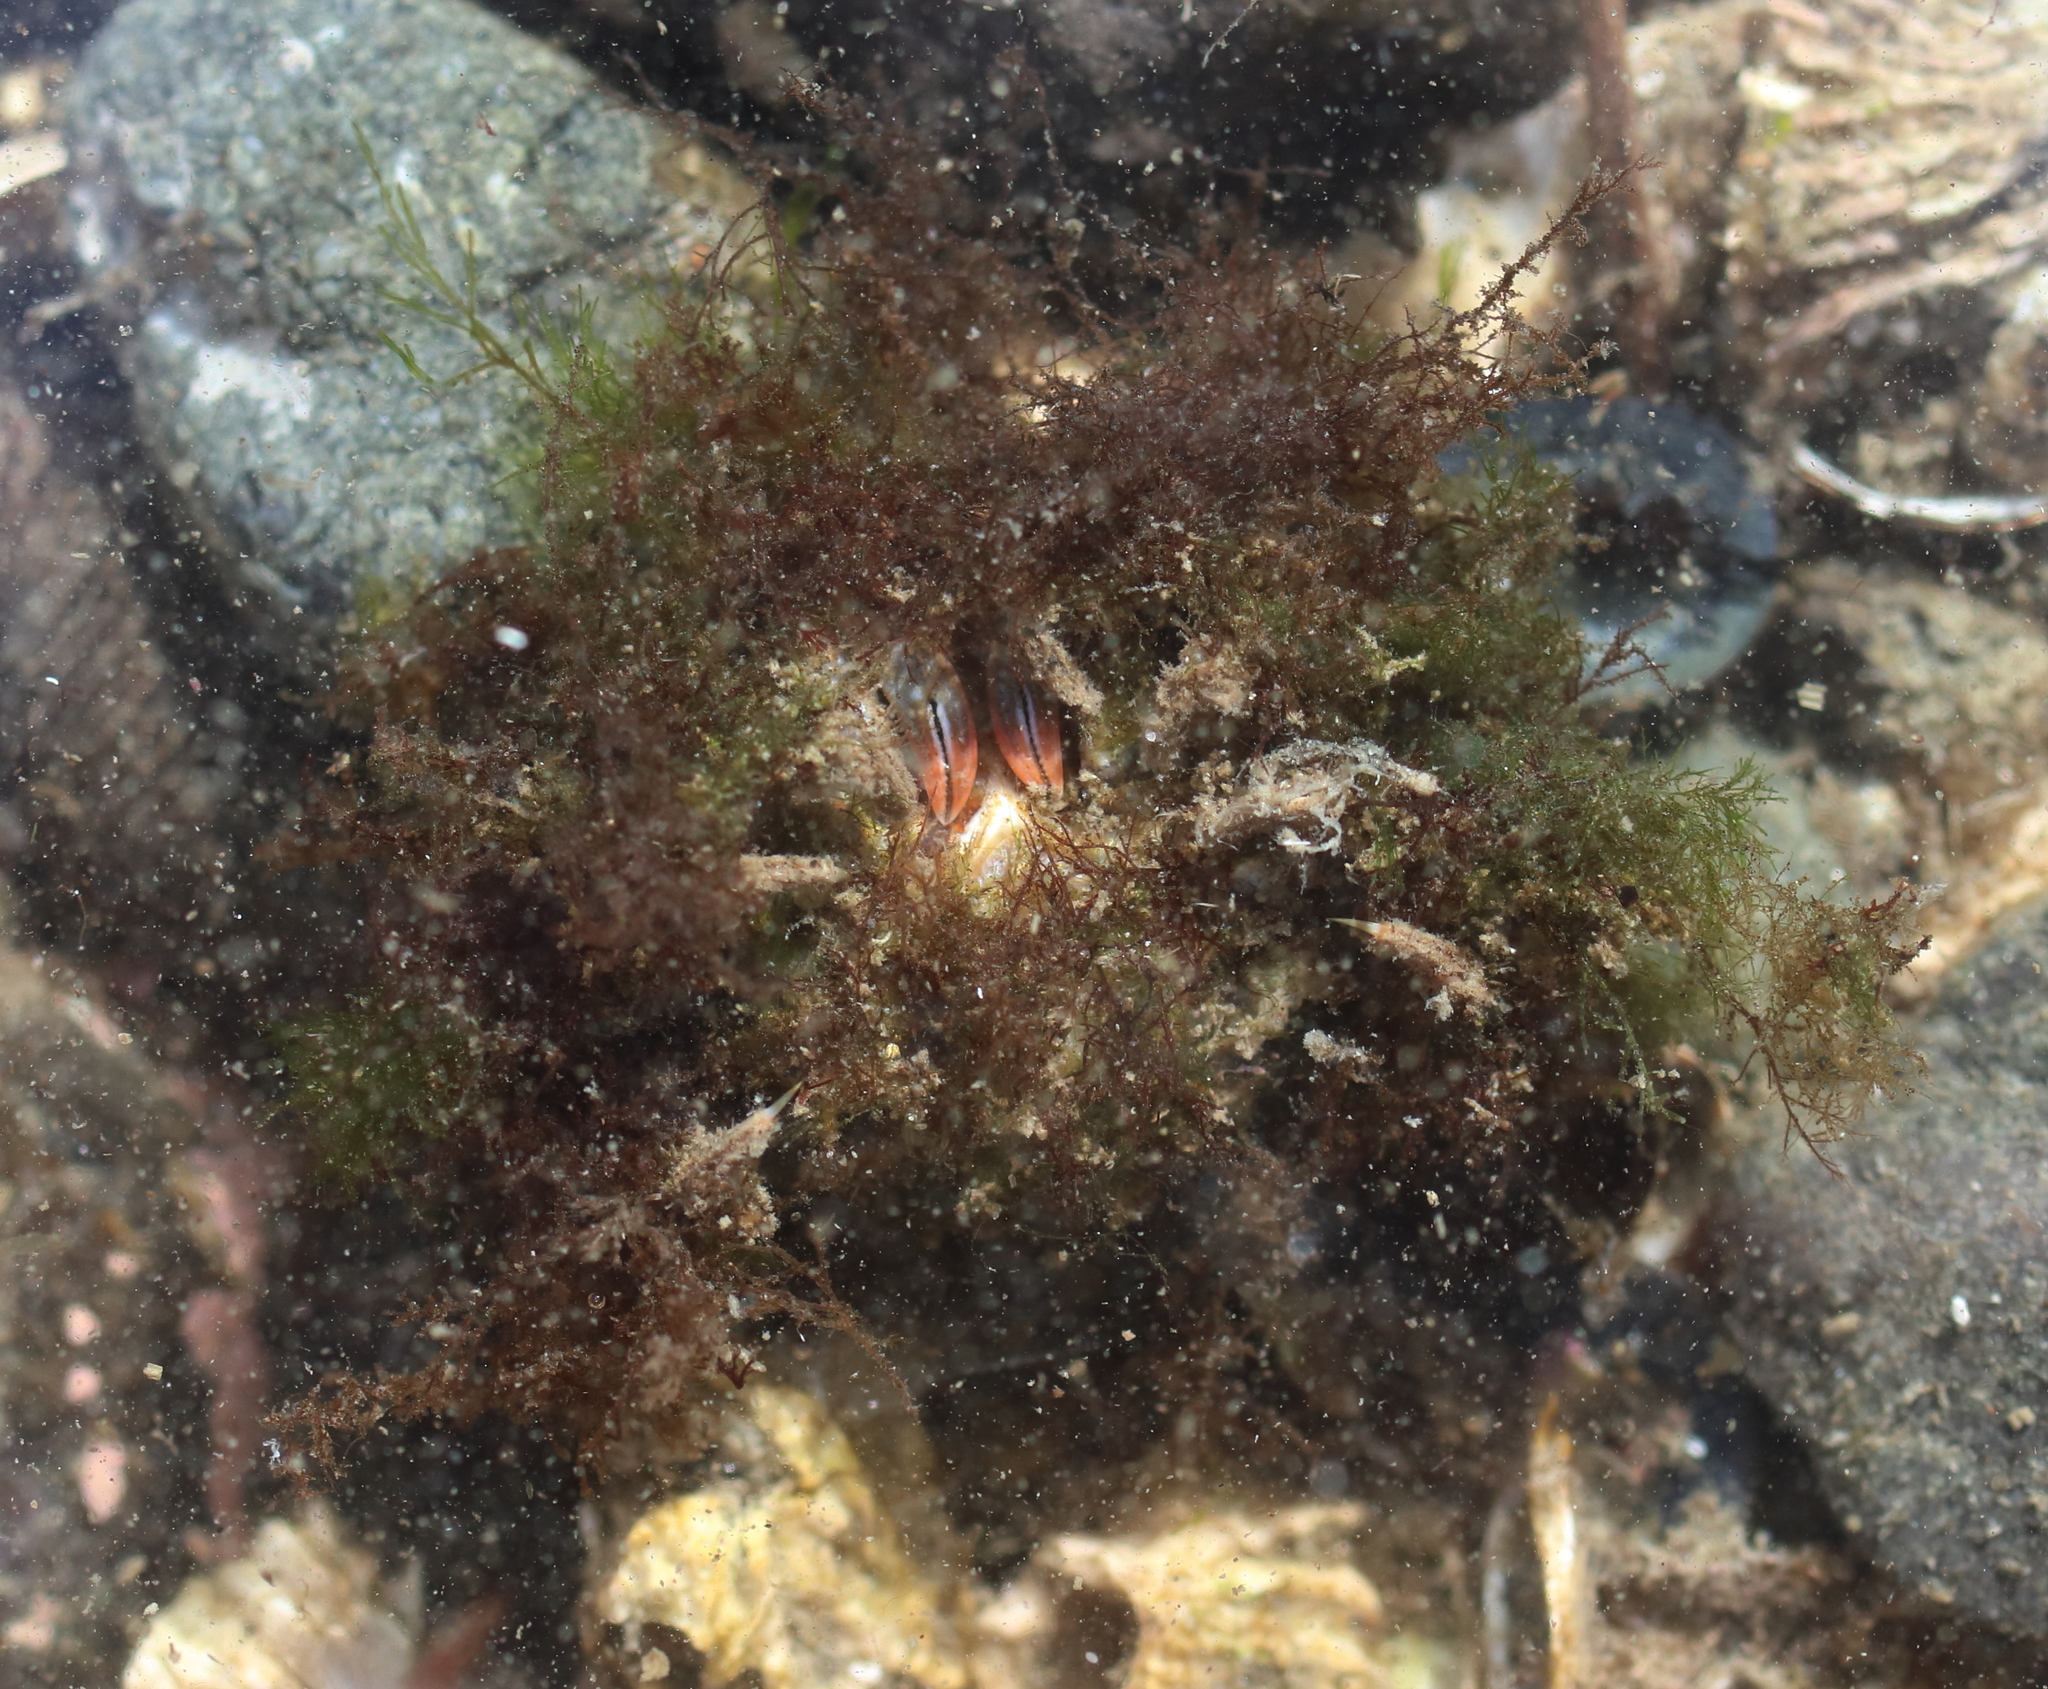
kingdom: Animalia
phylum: Arthropoda
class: Malacostraca
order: Decapoda
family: Oregoniidae
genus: Oregonia
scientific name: Oregonia gracilis
